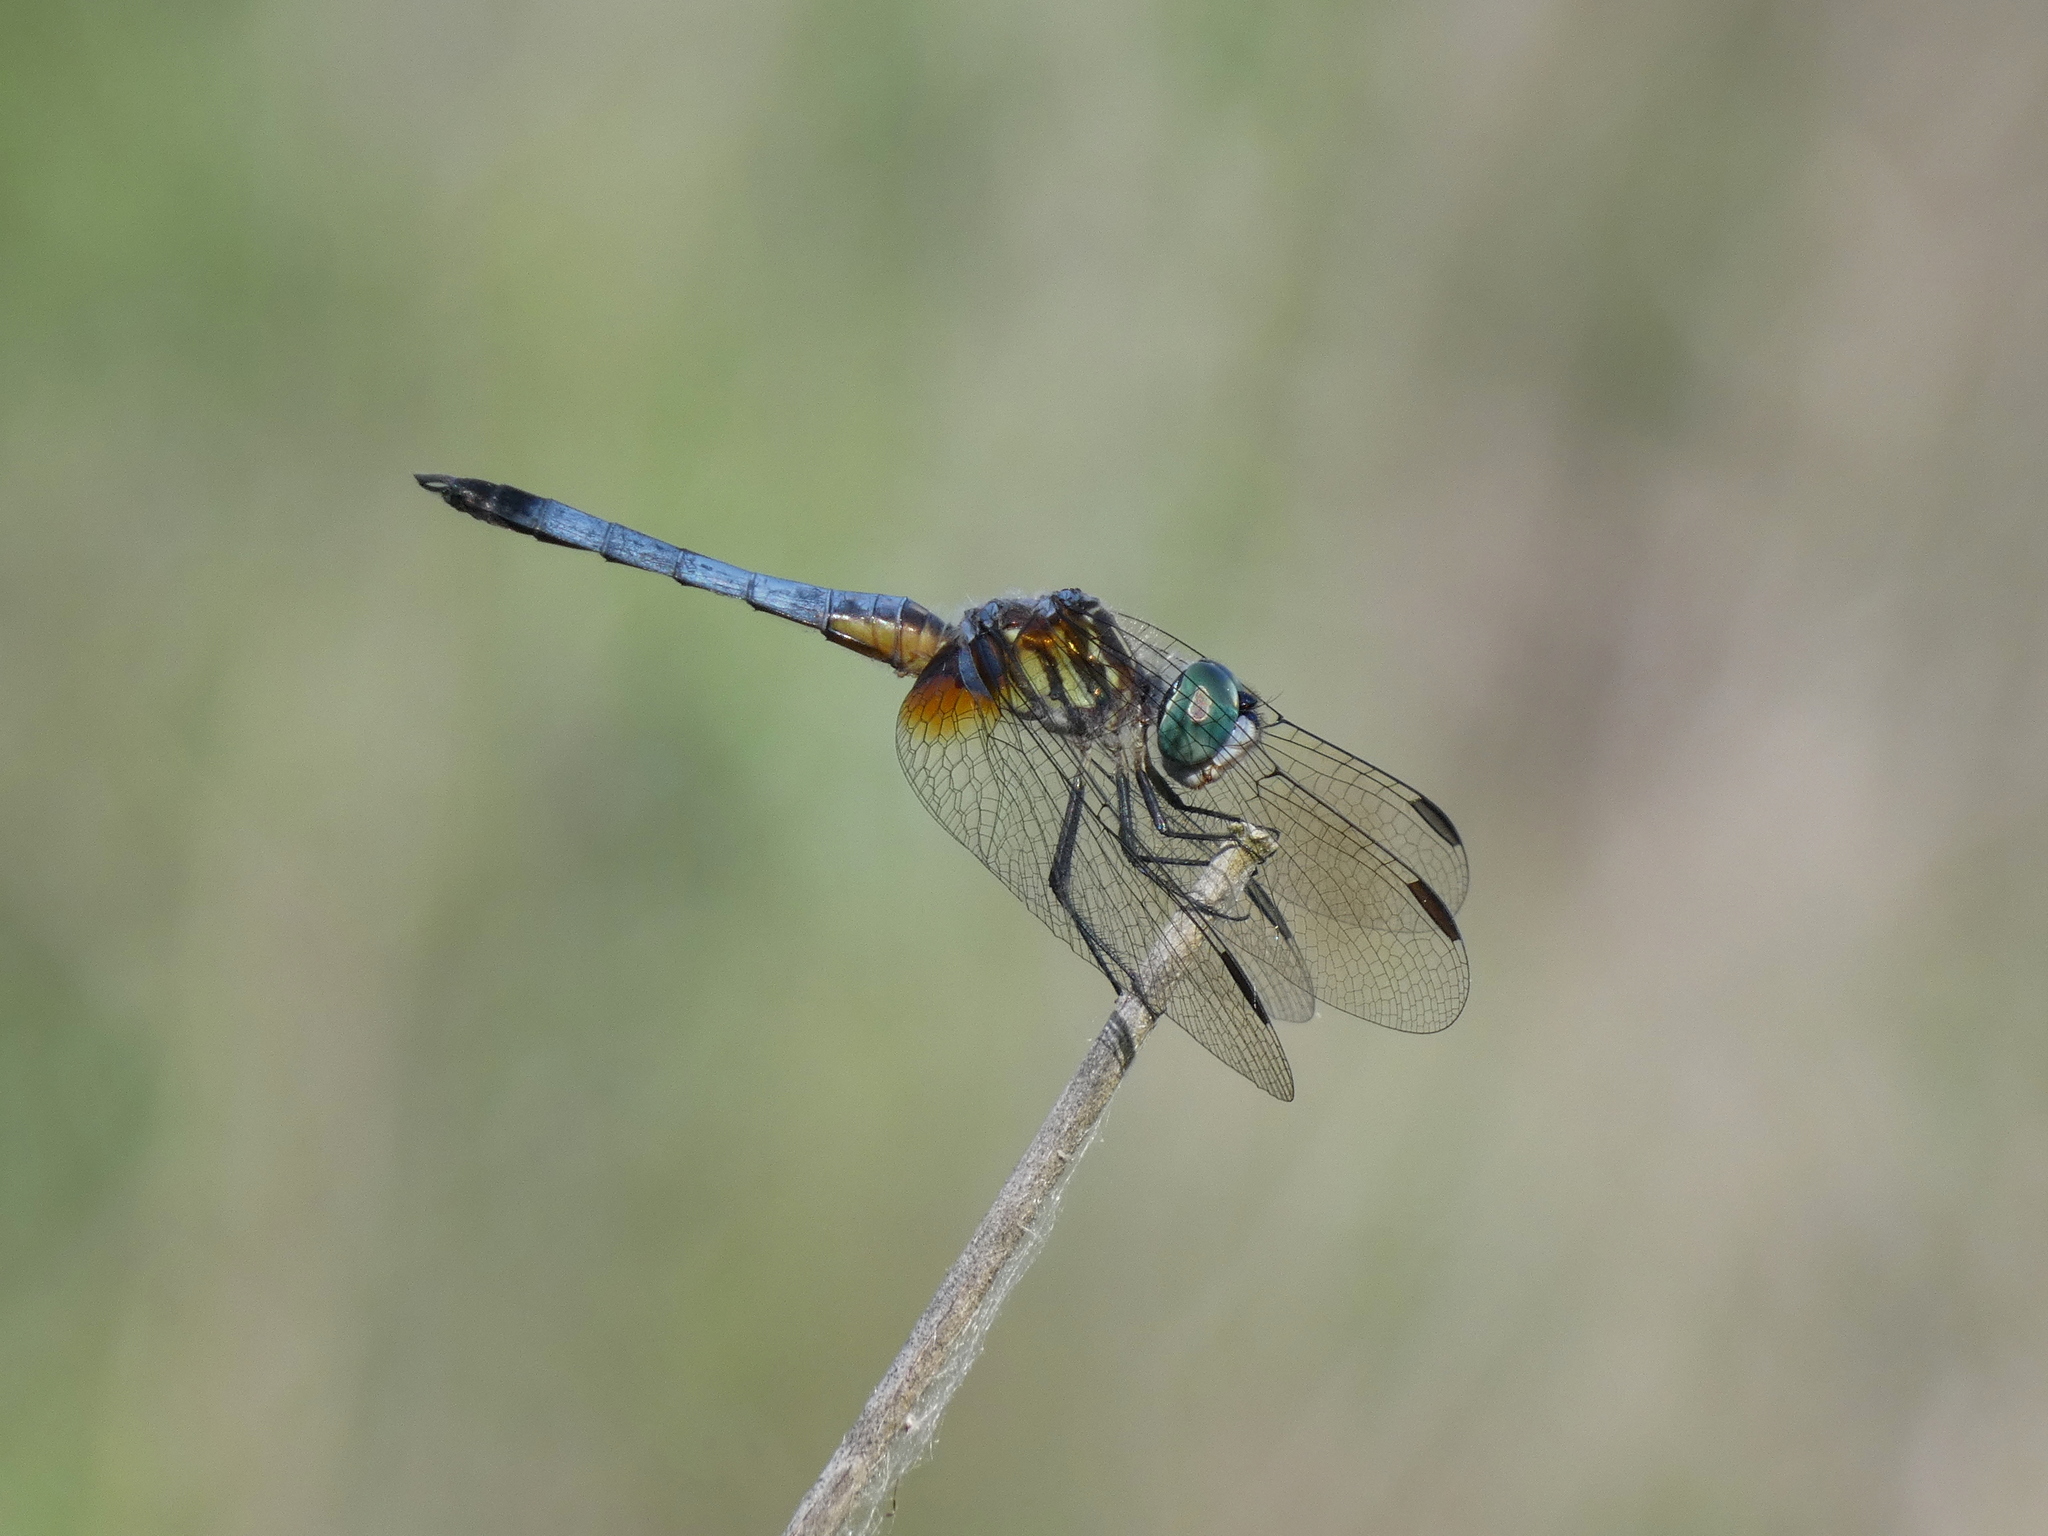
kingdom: Animalia
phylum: Arthropoda
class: Insecta
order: Odonata
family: Libellulidae
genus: Pachydiplax
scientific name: Pachydiplax longipennis
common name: Blue dasher
